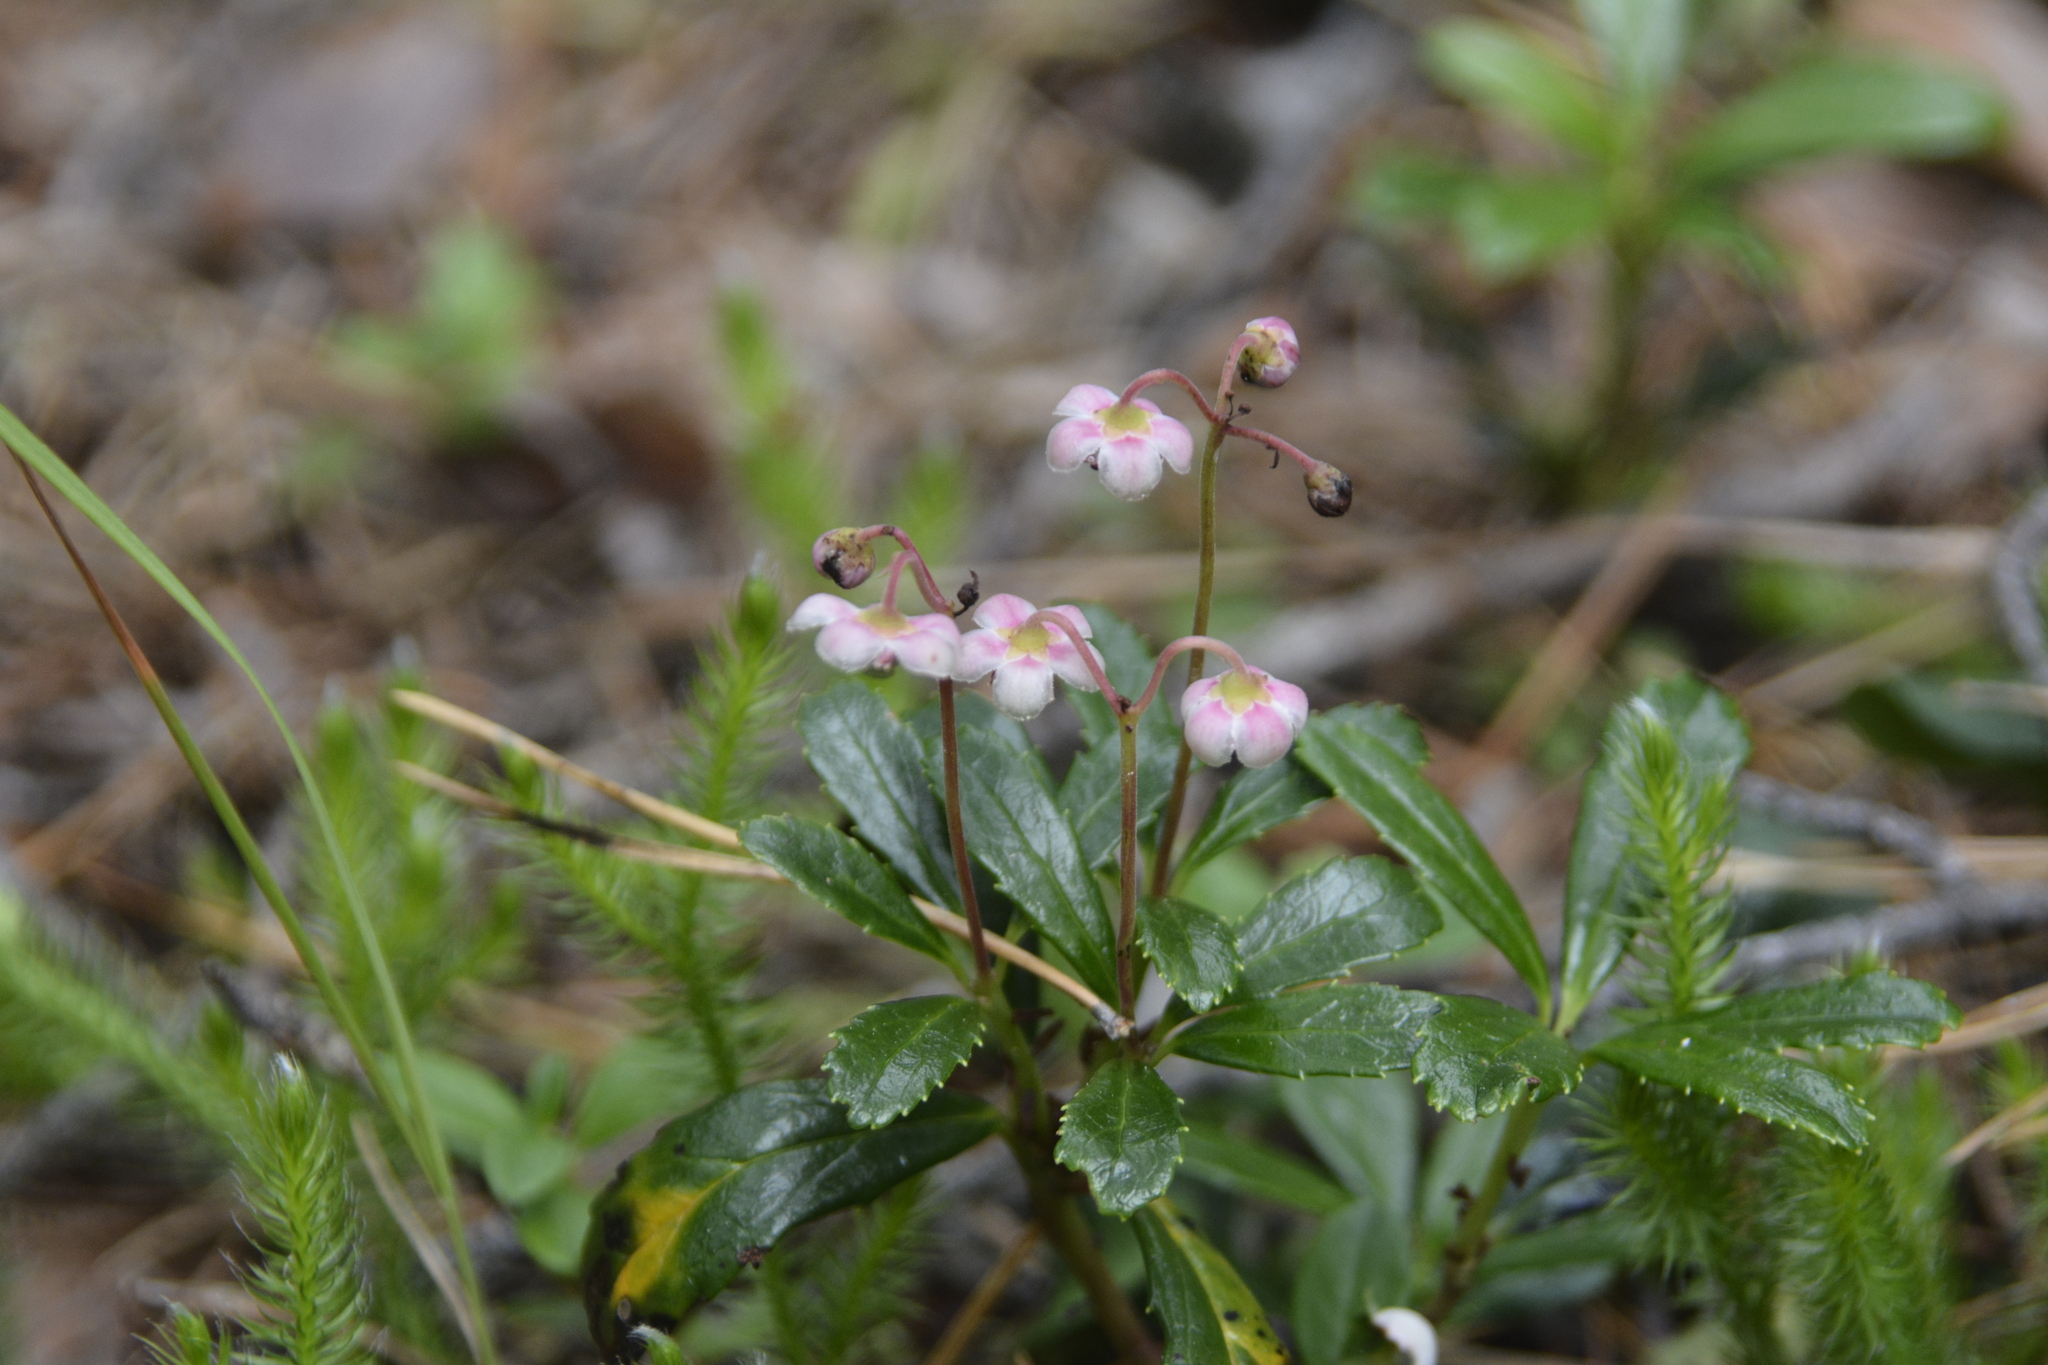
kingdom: Plantae
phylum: Tracheophyta
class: Magnoliopsida
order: Ericales
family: Ericaceae
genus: Chimaphila
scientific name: Chimaphila umbellata
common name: Pipsissewa
